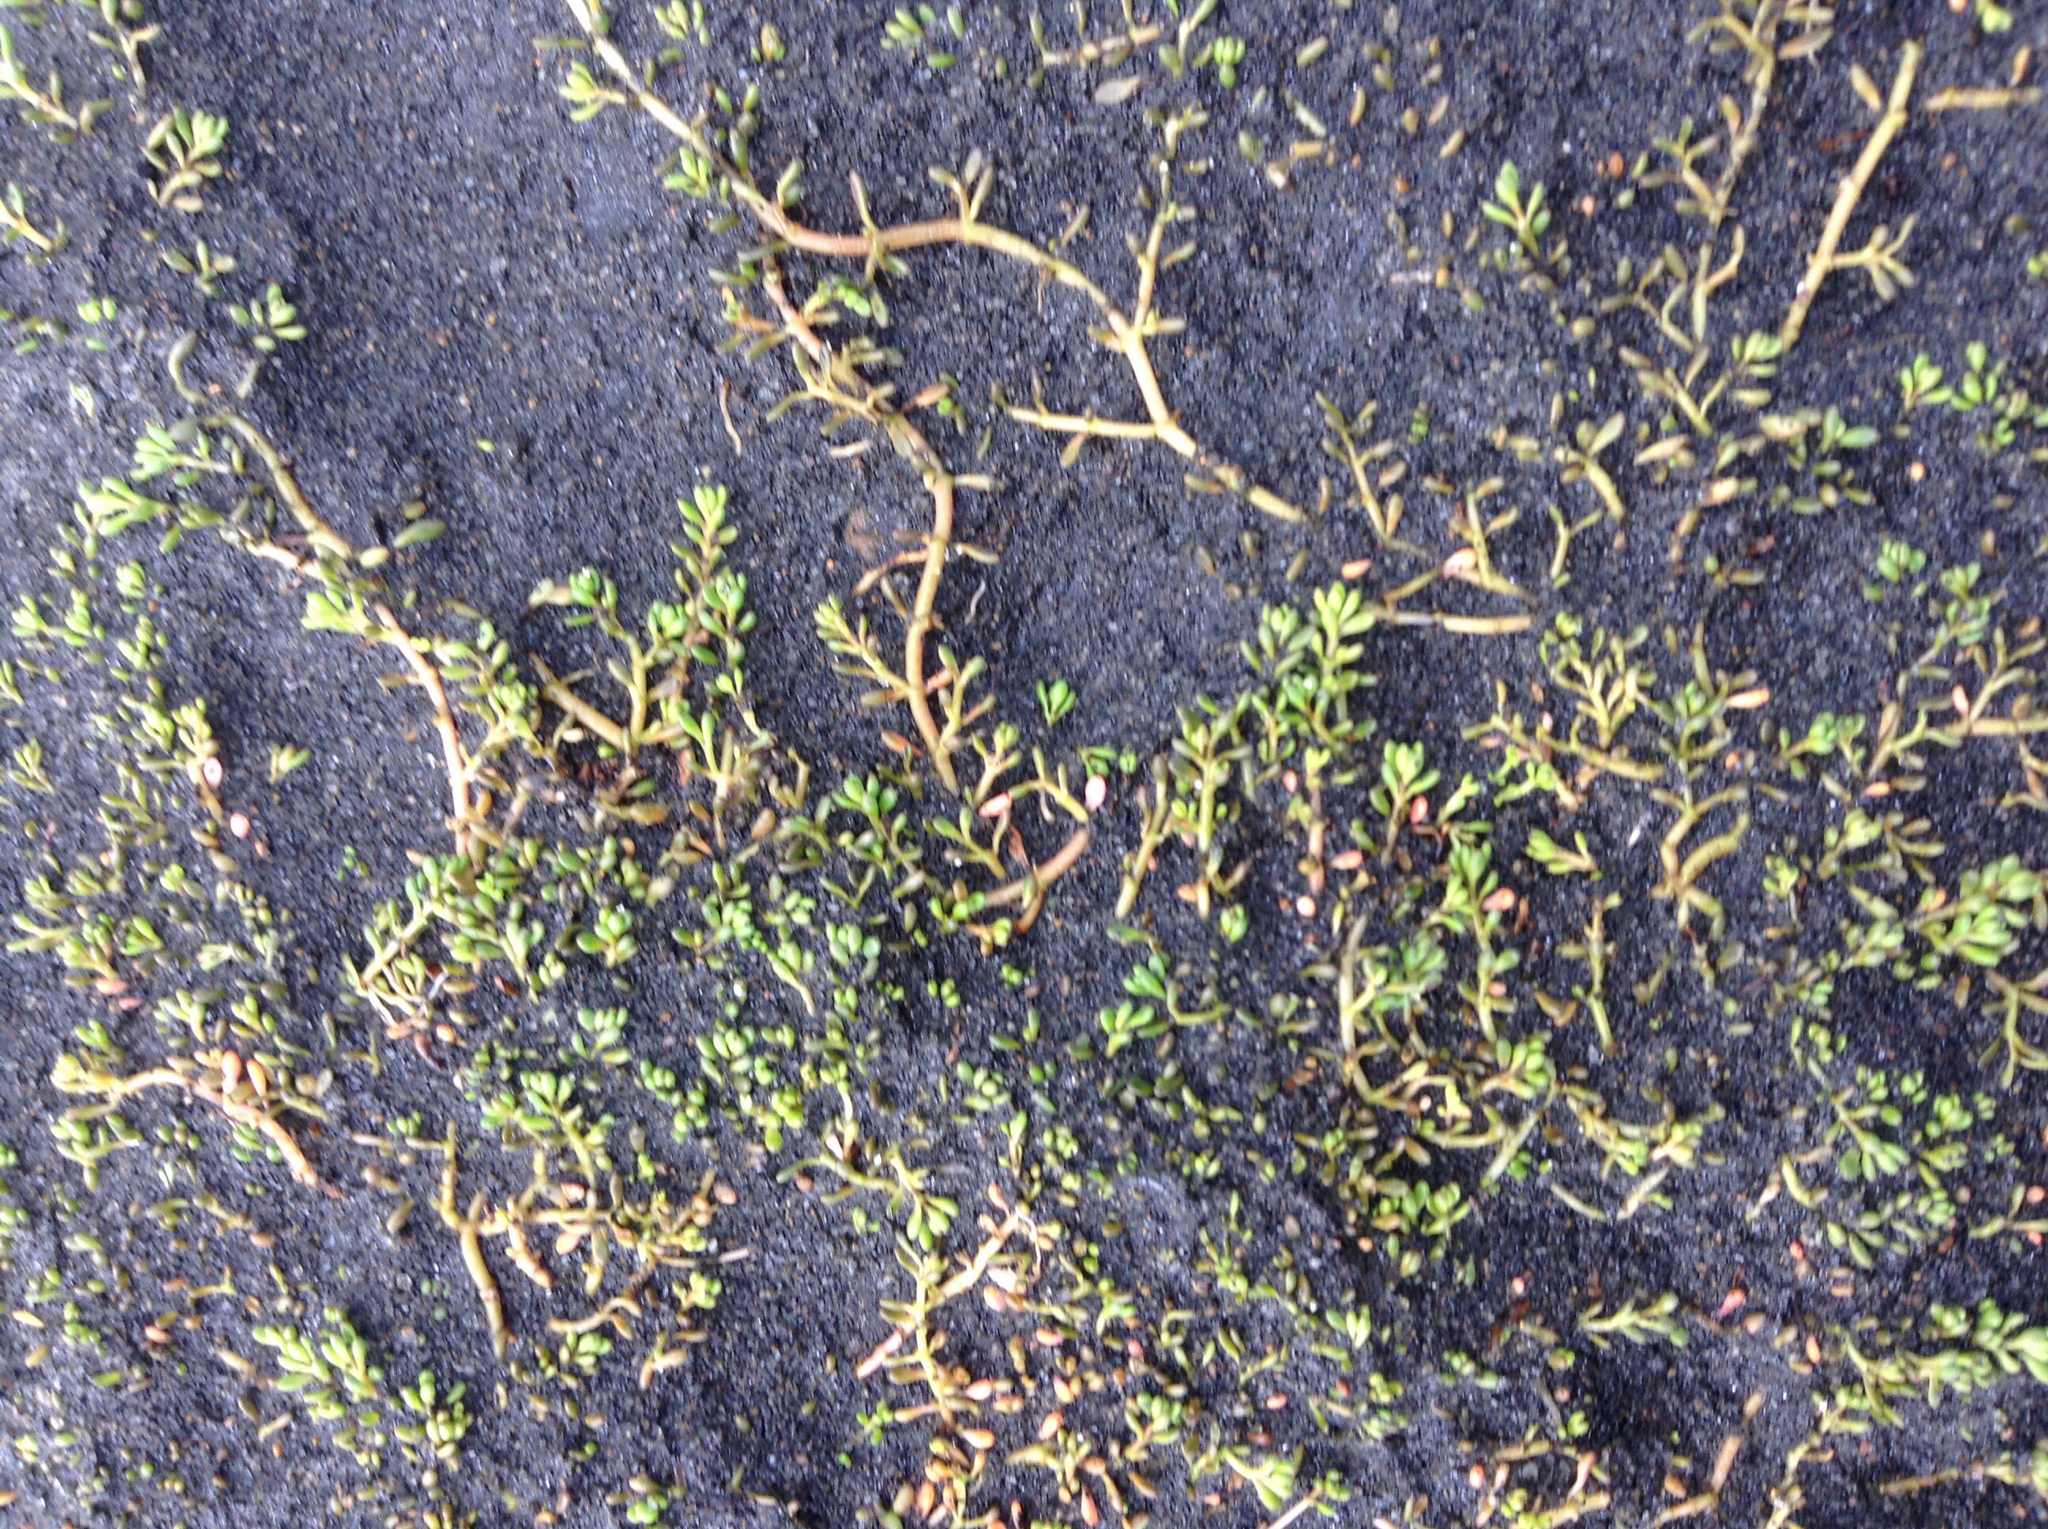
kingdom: Plantae
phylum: Tracheophyta
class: Magnoliopsida
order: Saxifragales
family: Haloragaceae
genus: Myriophyllum
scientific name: Myriophyllum votschii
